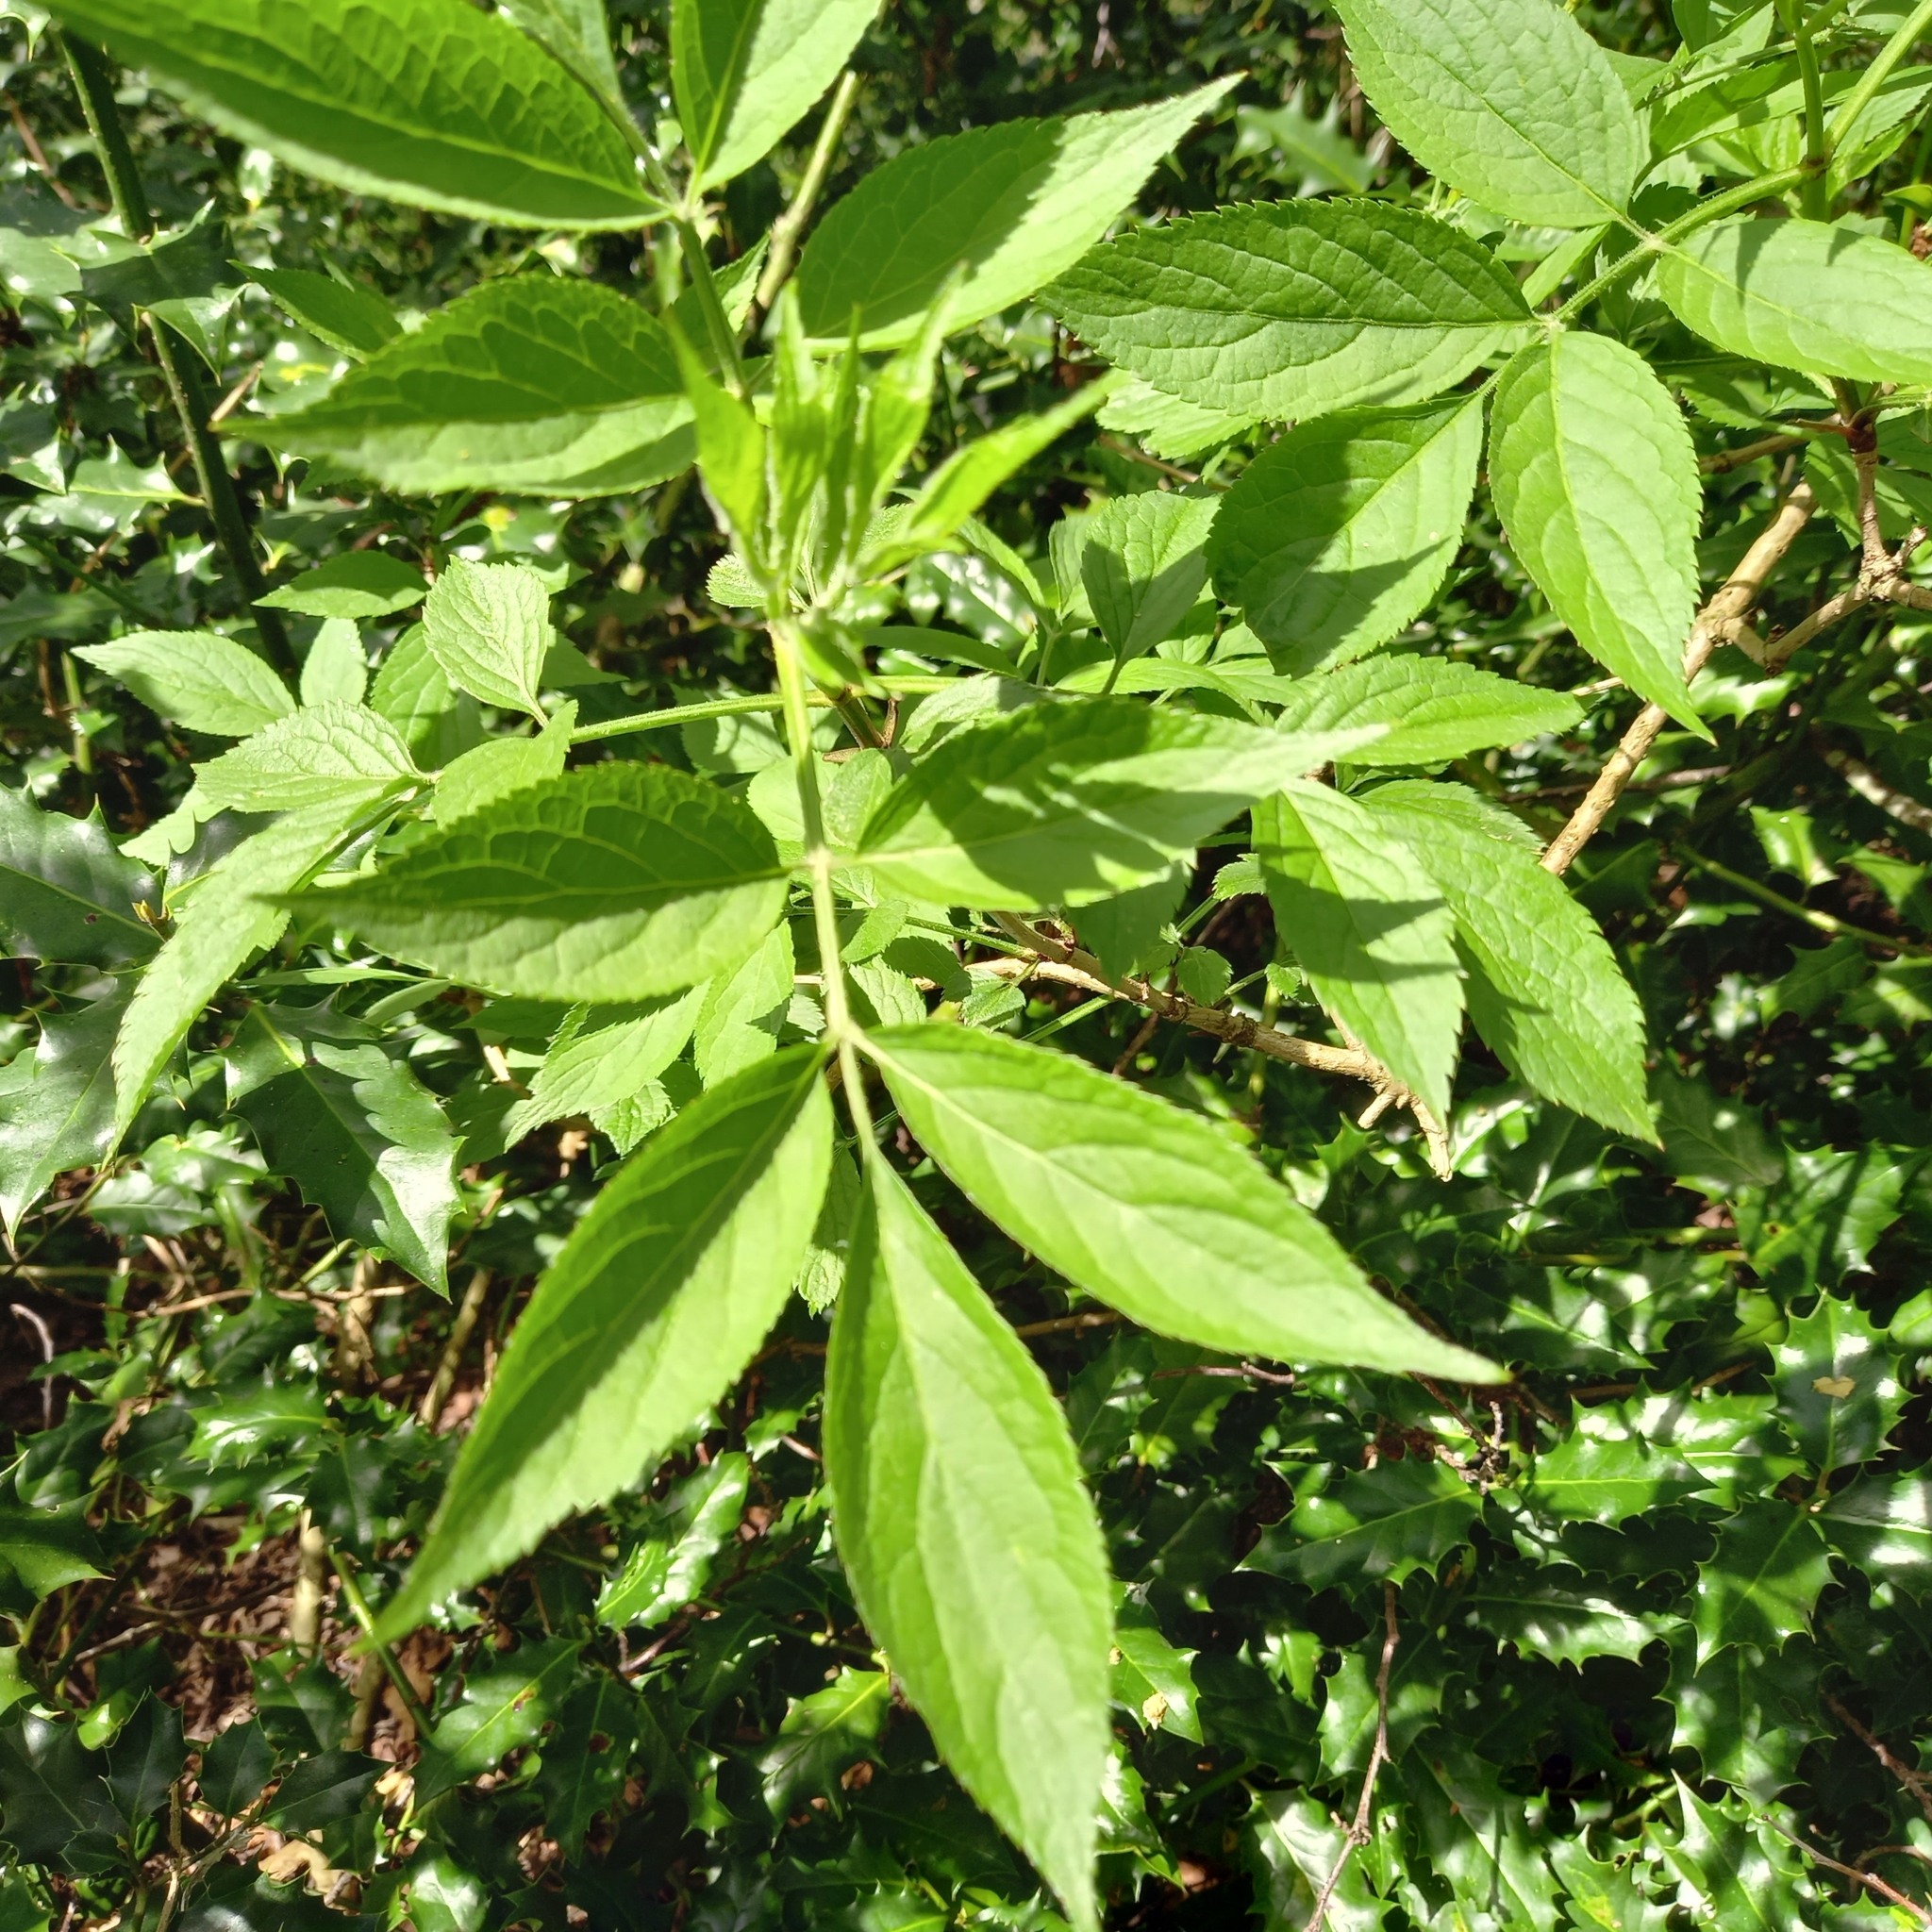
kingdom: Plantae
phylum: Tracheophyta
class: Magnoliopsida
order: Dipsacales
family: Viburnaceae
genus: Sambucus
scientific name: Sambucus nigra
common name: Elder
